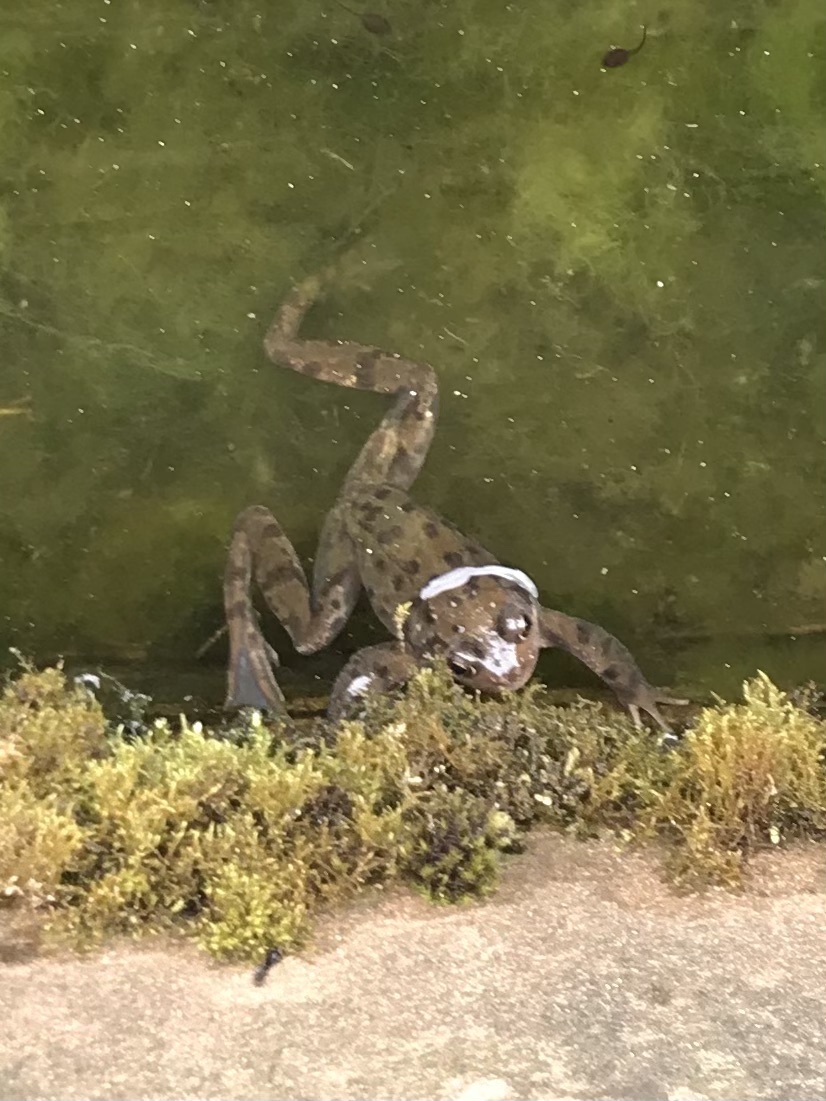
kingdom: Animalia
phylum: Chordata
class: Amphibia
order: Anura
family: Ranidae
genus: Rana
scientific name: Rana temporaria
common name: Common frog
